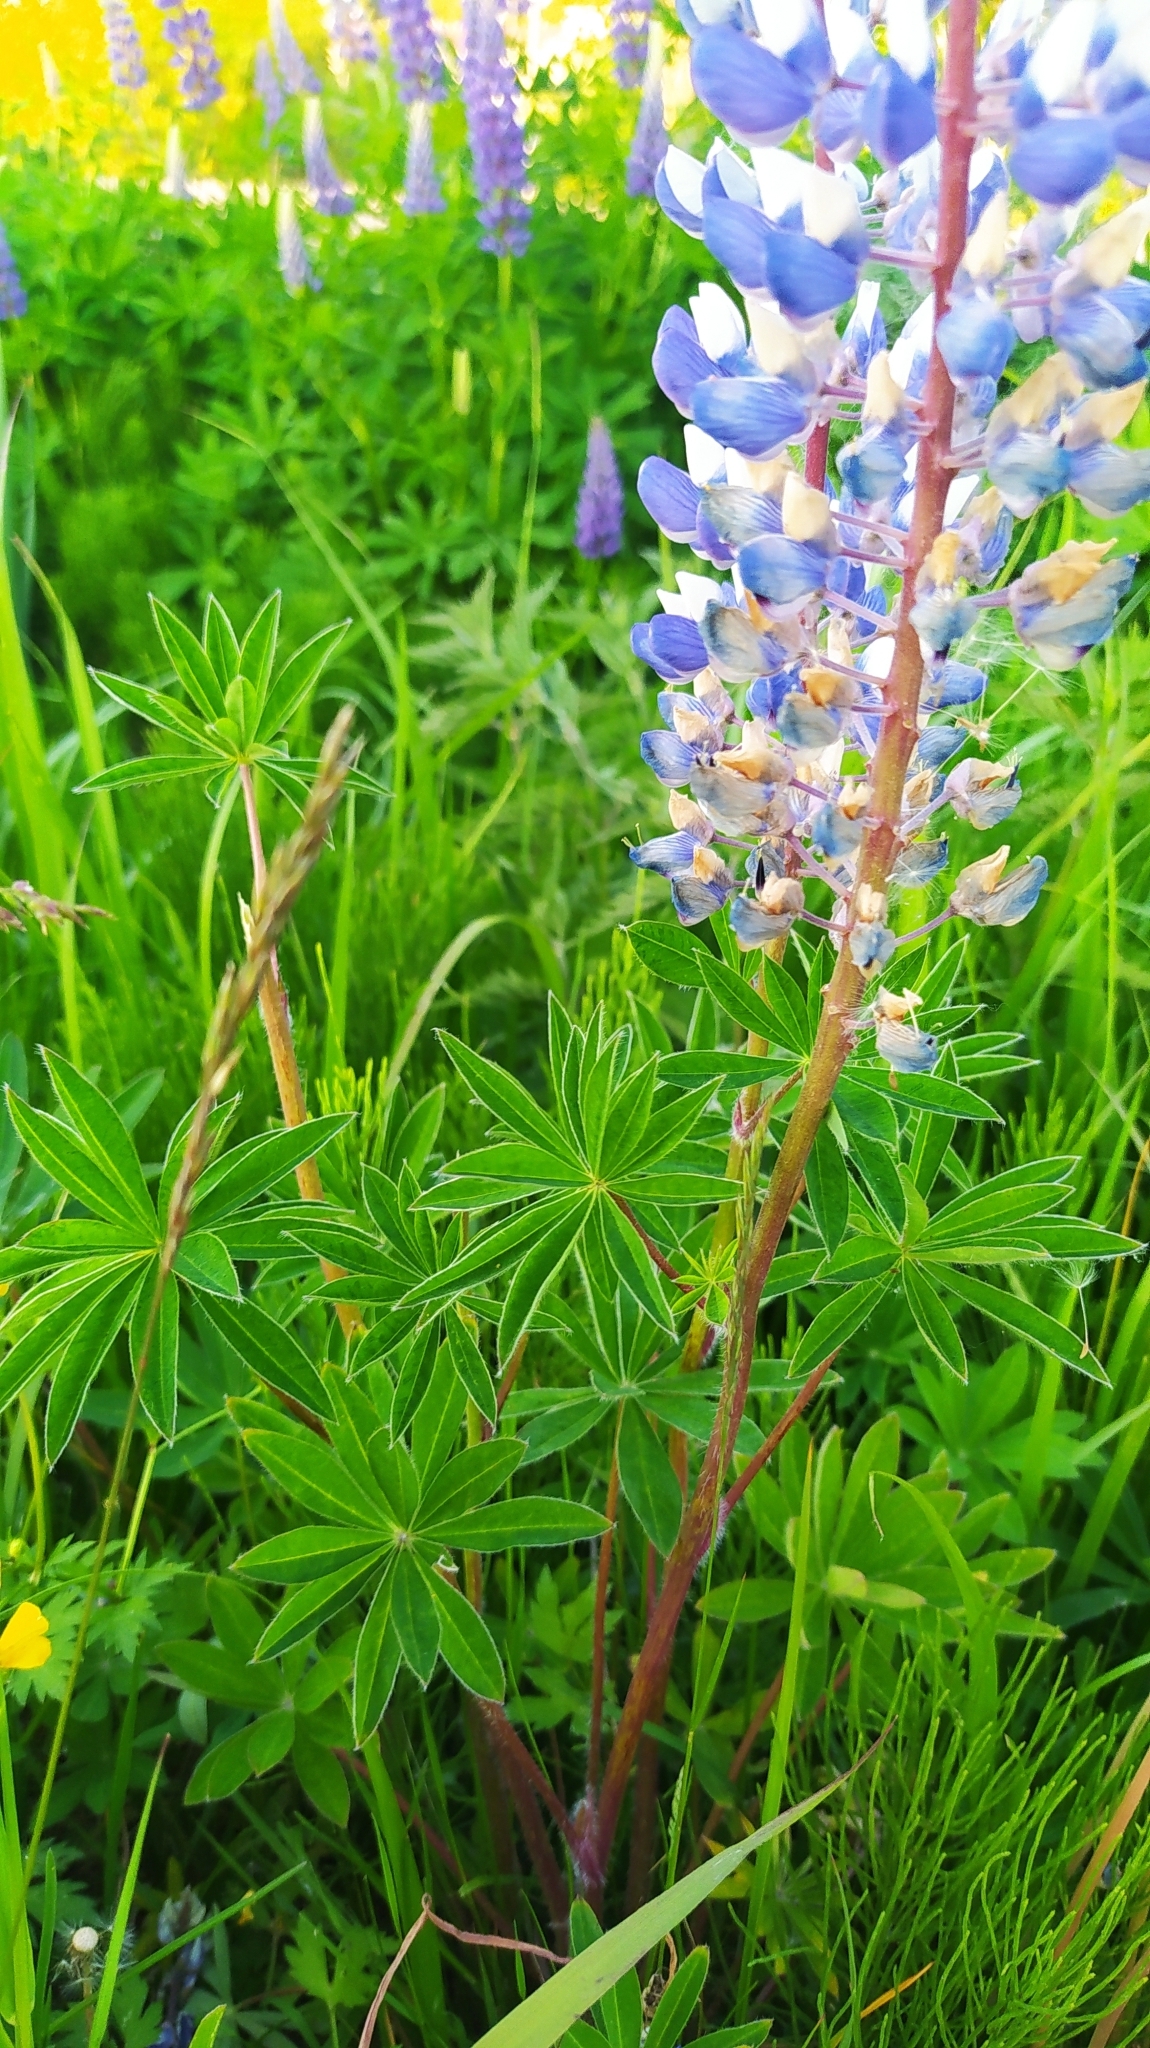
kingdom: Plantae
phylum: Tracheophyta
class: Magnoliopsida
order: Fabales
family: Fabaceae
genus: Lupinus
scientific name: Lupinus polyphyllus
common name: Garden lupin
